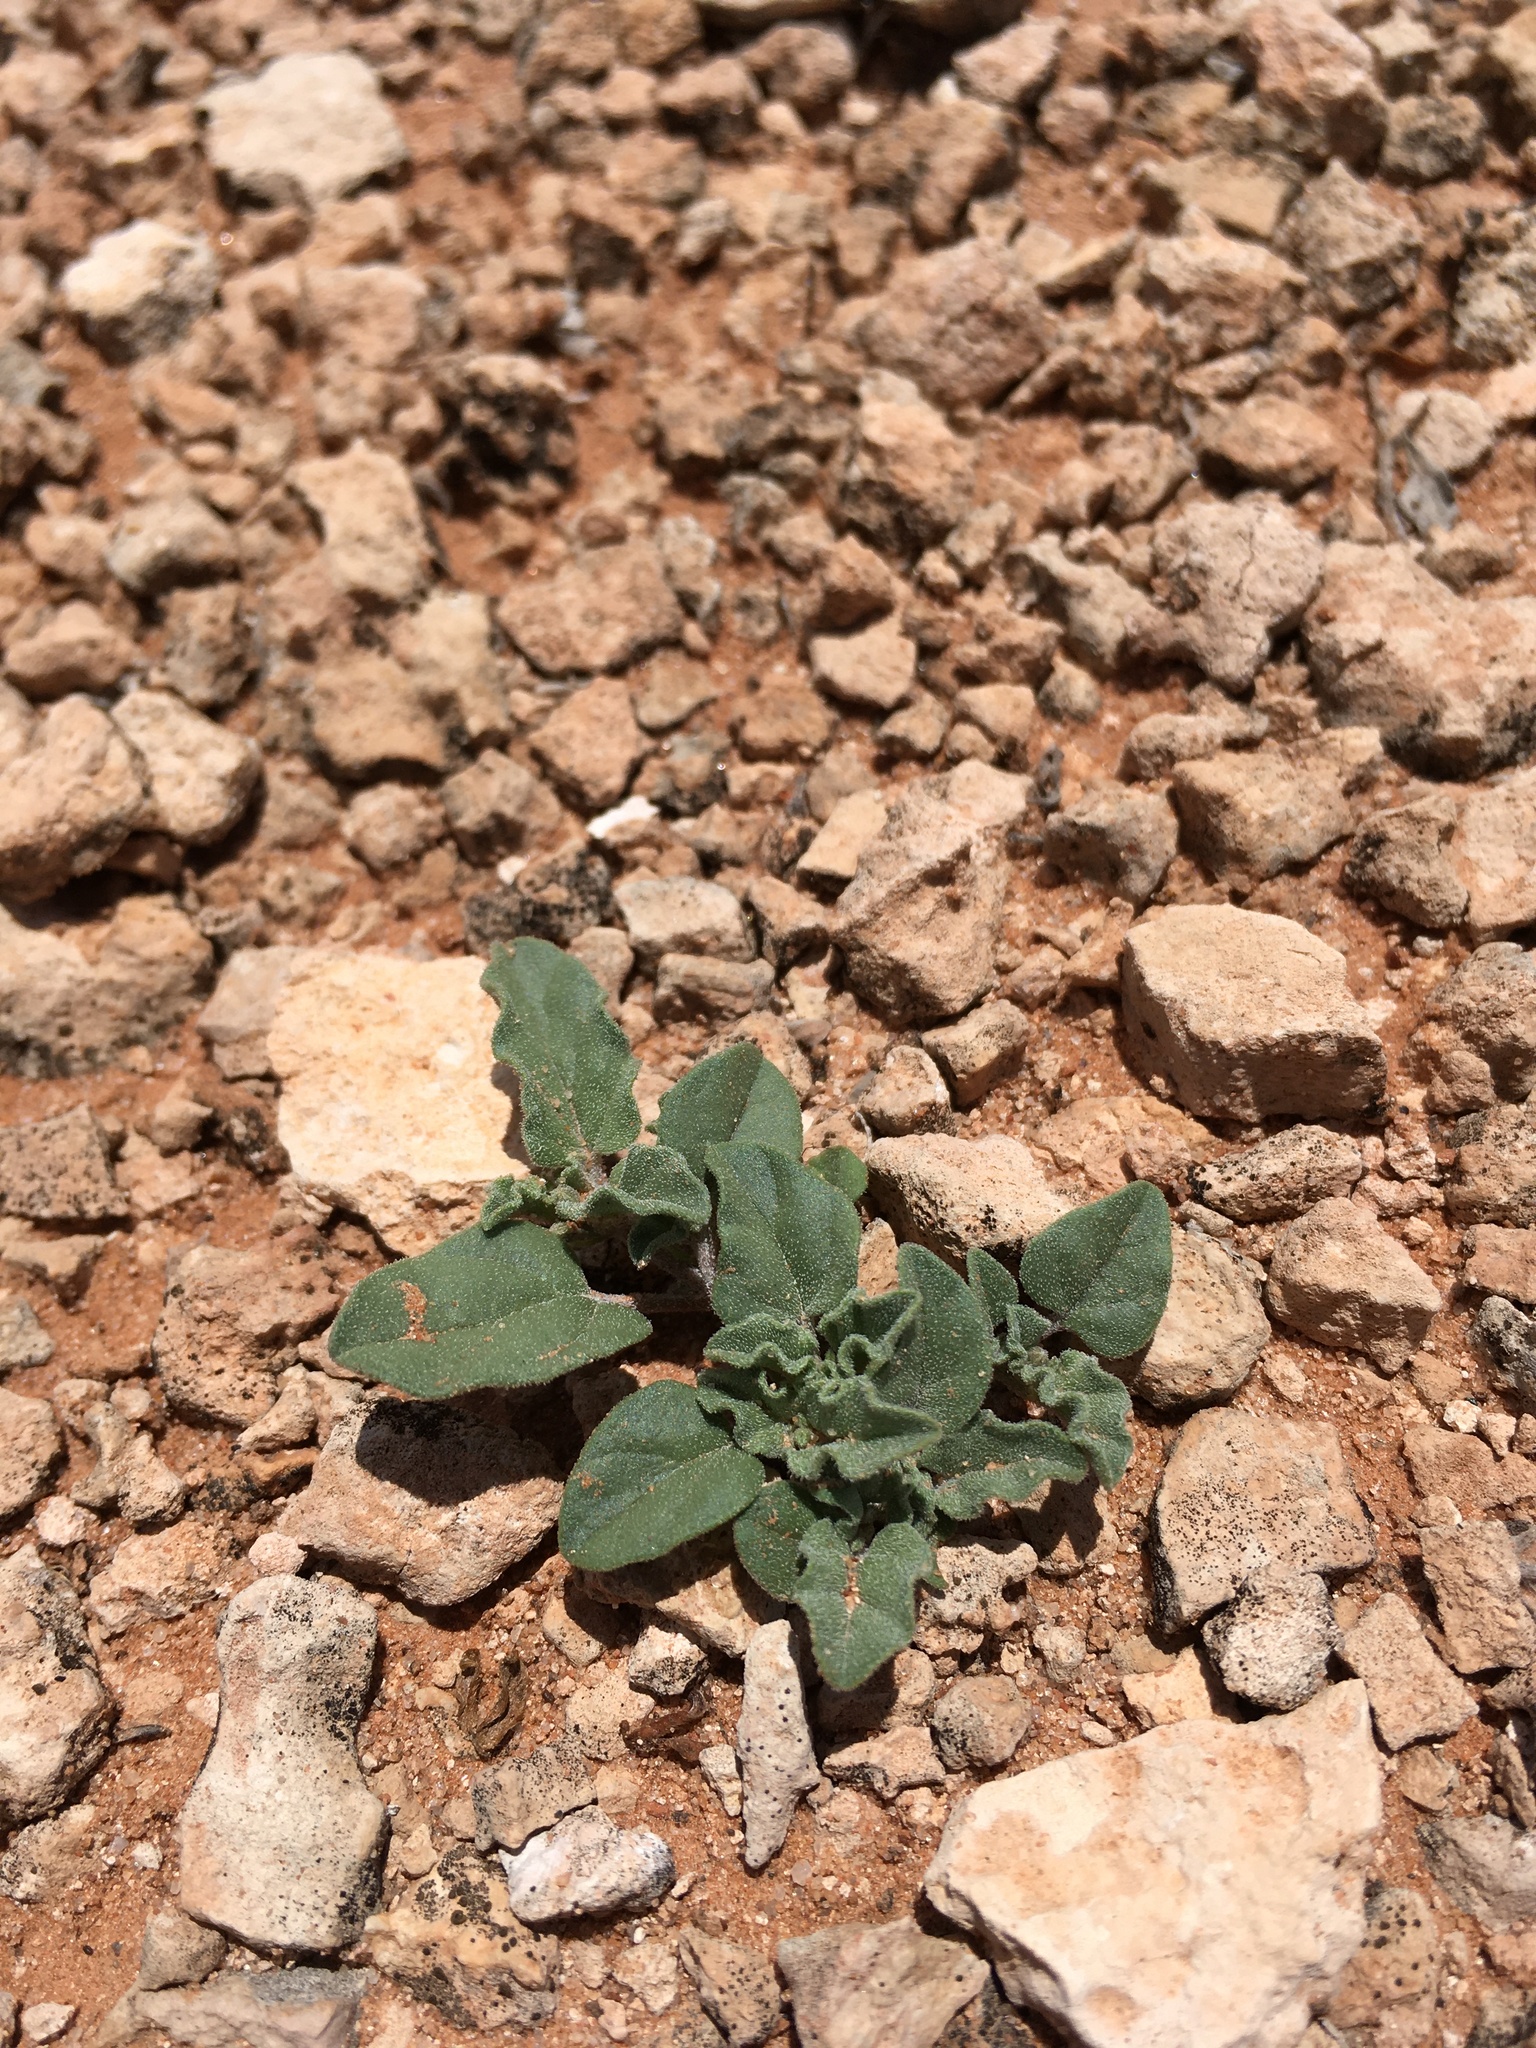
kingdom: Plantae
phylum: Tracheophyta
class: Magnoliopsida
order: Caryophyllales
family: Nyctaginaceae
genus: Acleisanthes
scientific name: Acleisanthes diffusa
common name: Spreading moonpod
